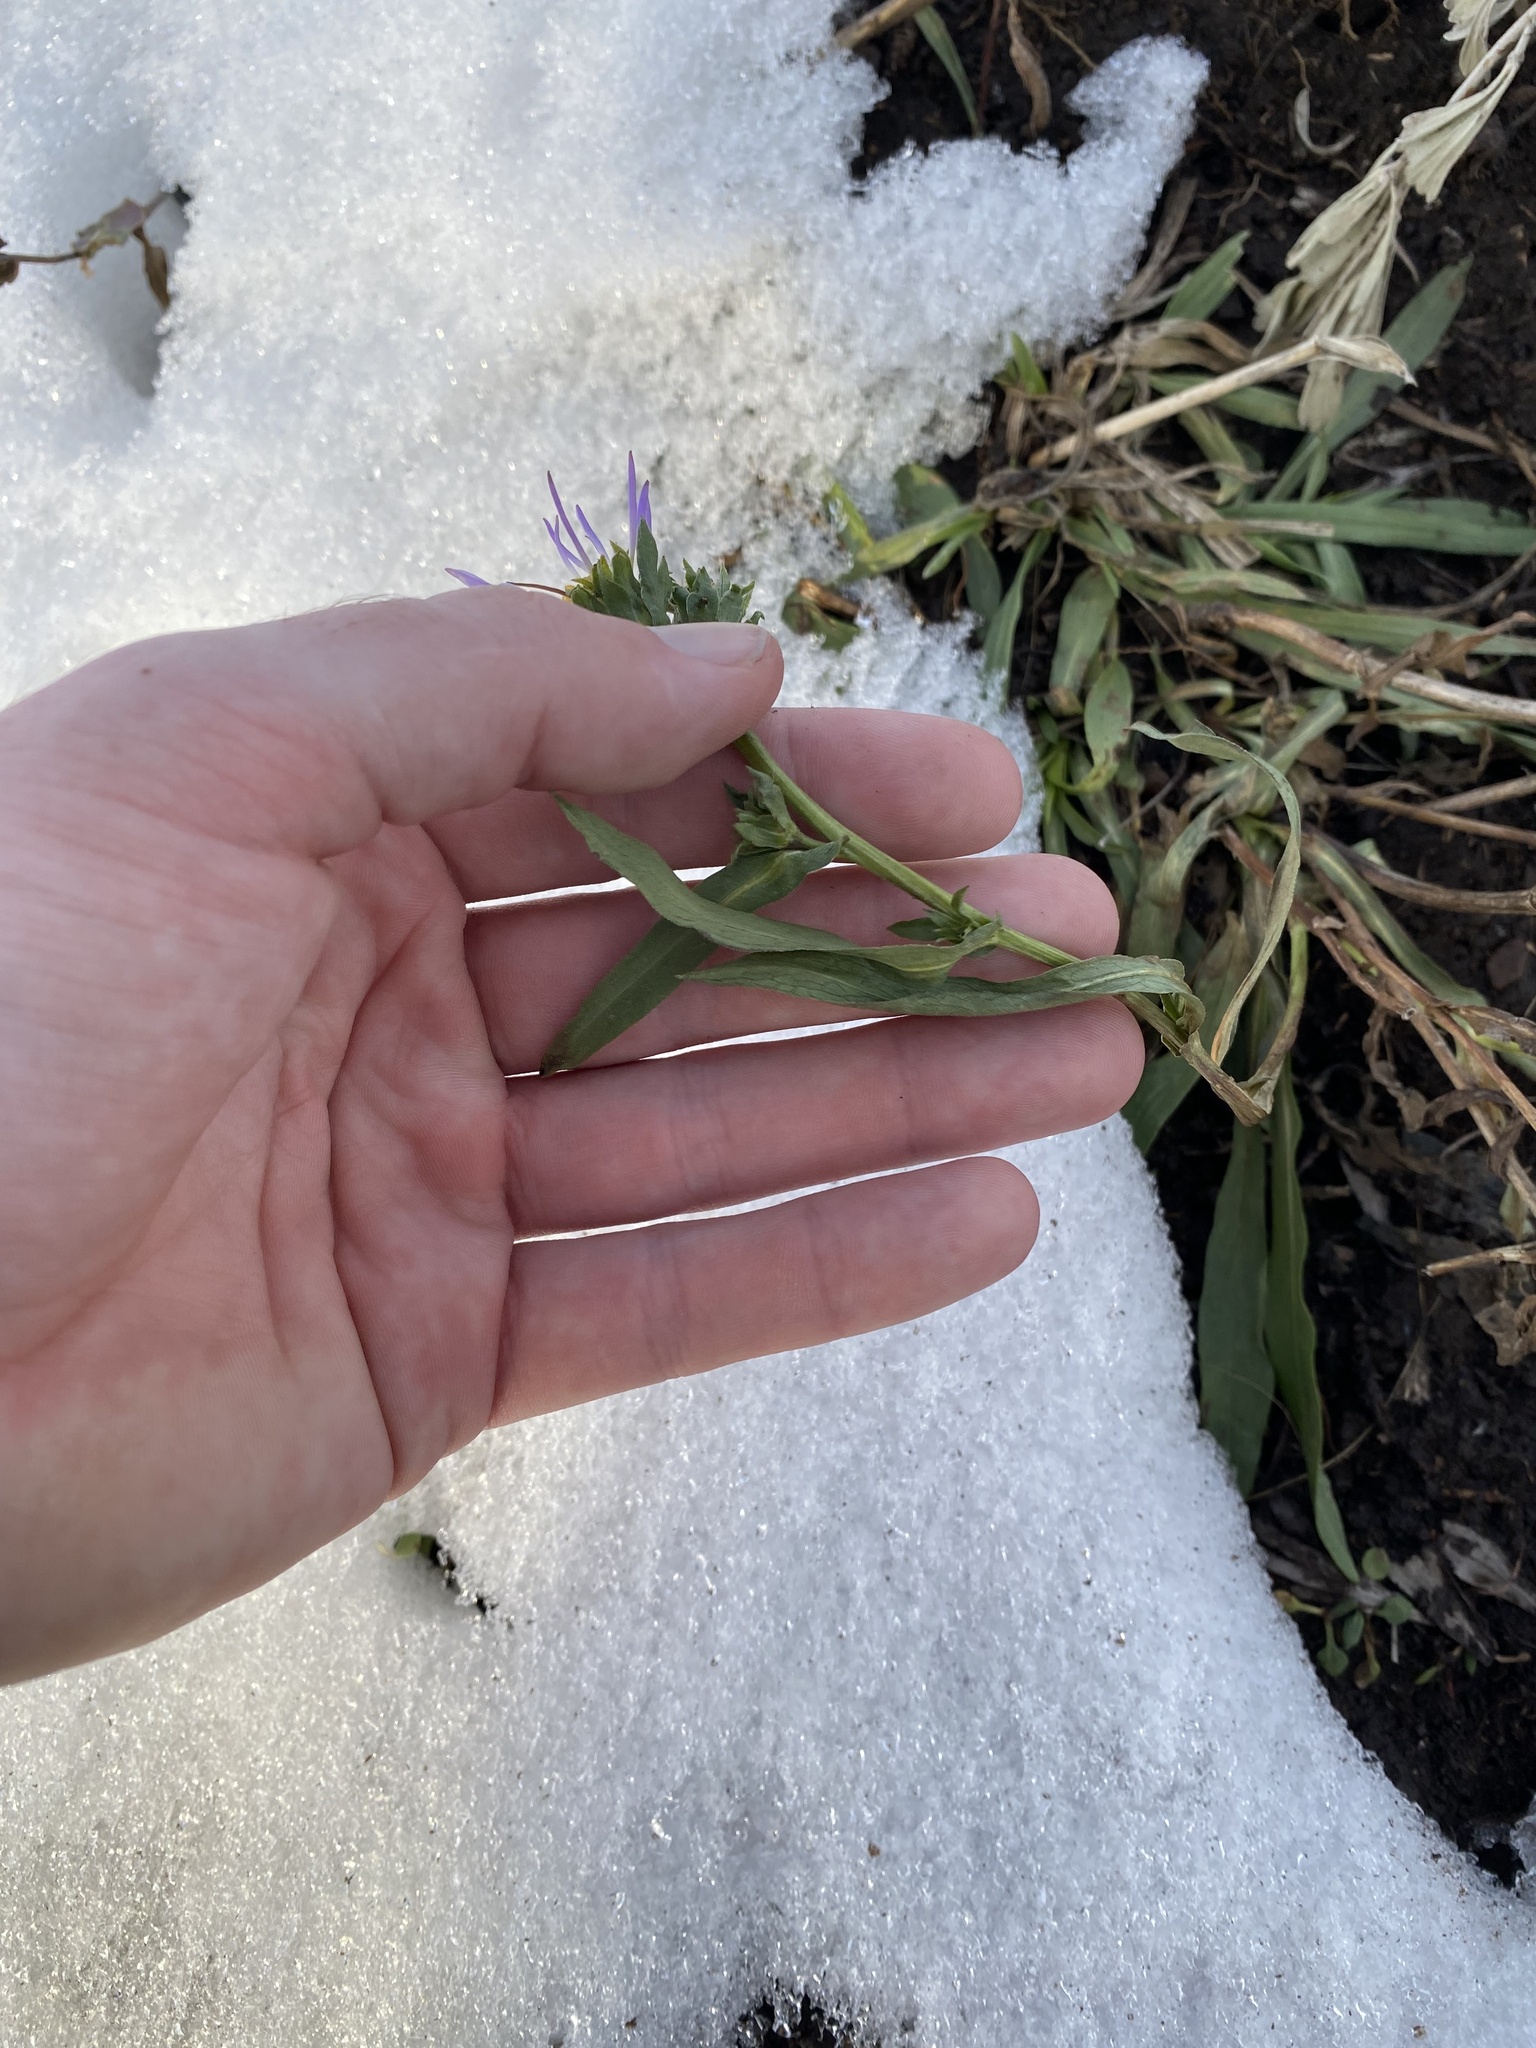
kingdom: Plantae
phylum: Tracheophyta
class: Magnoliopsida
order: Asterales
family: Asteraceae
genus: Symphyotrichum
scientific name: Symphyotrichum foliaceum
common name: Leafy aster
